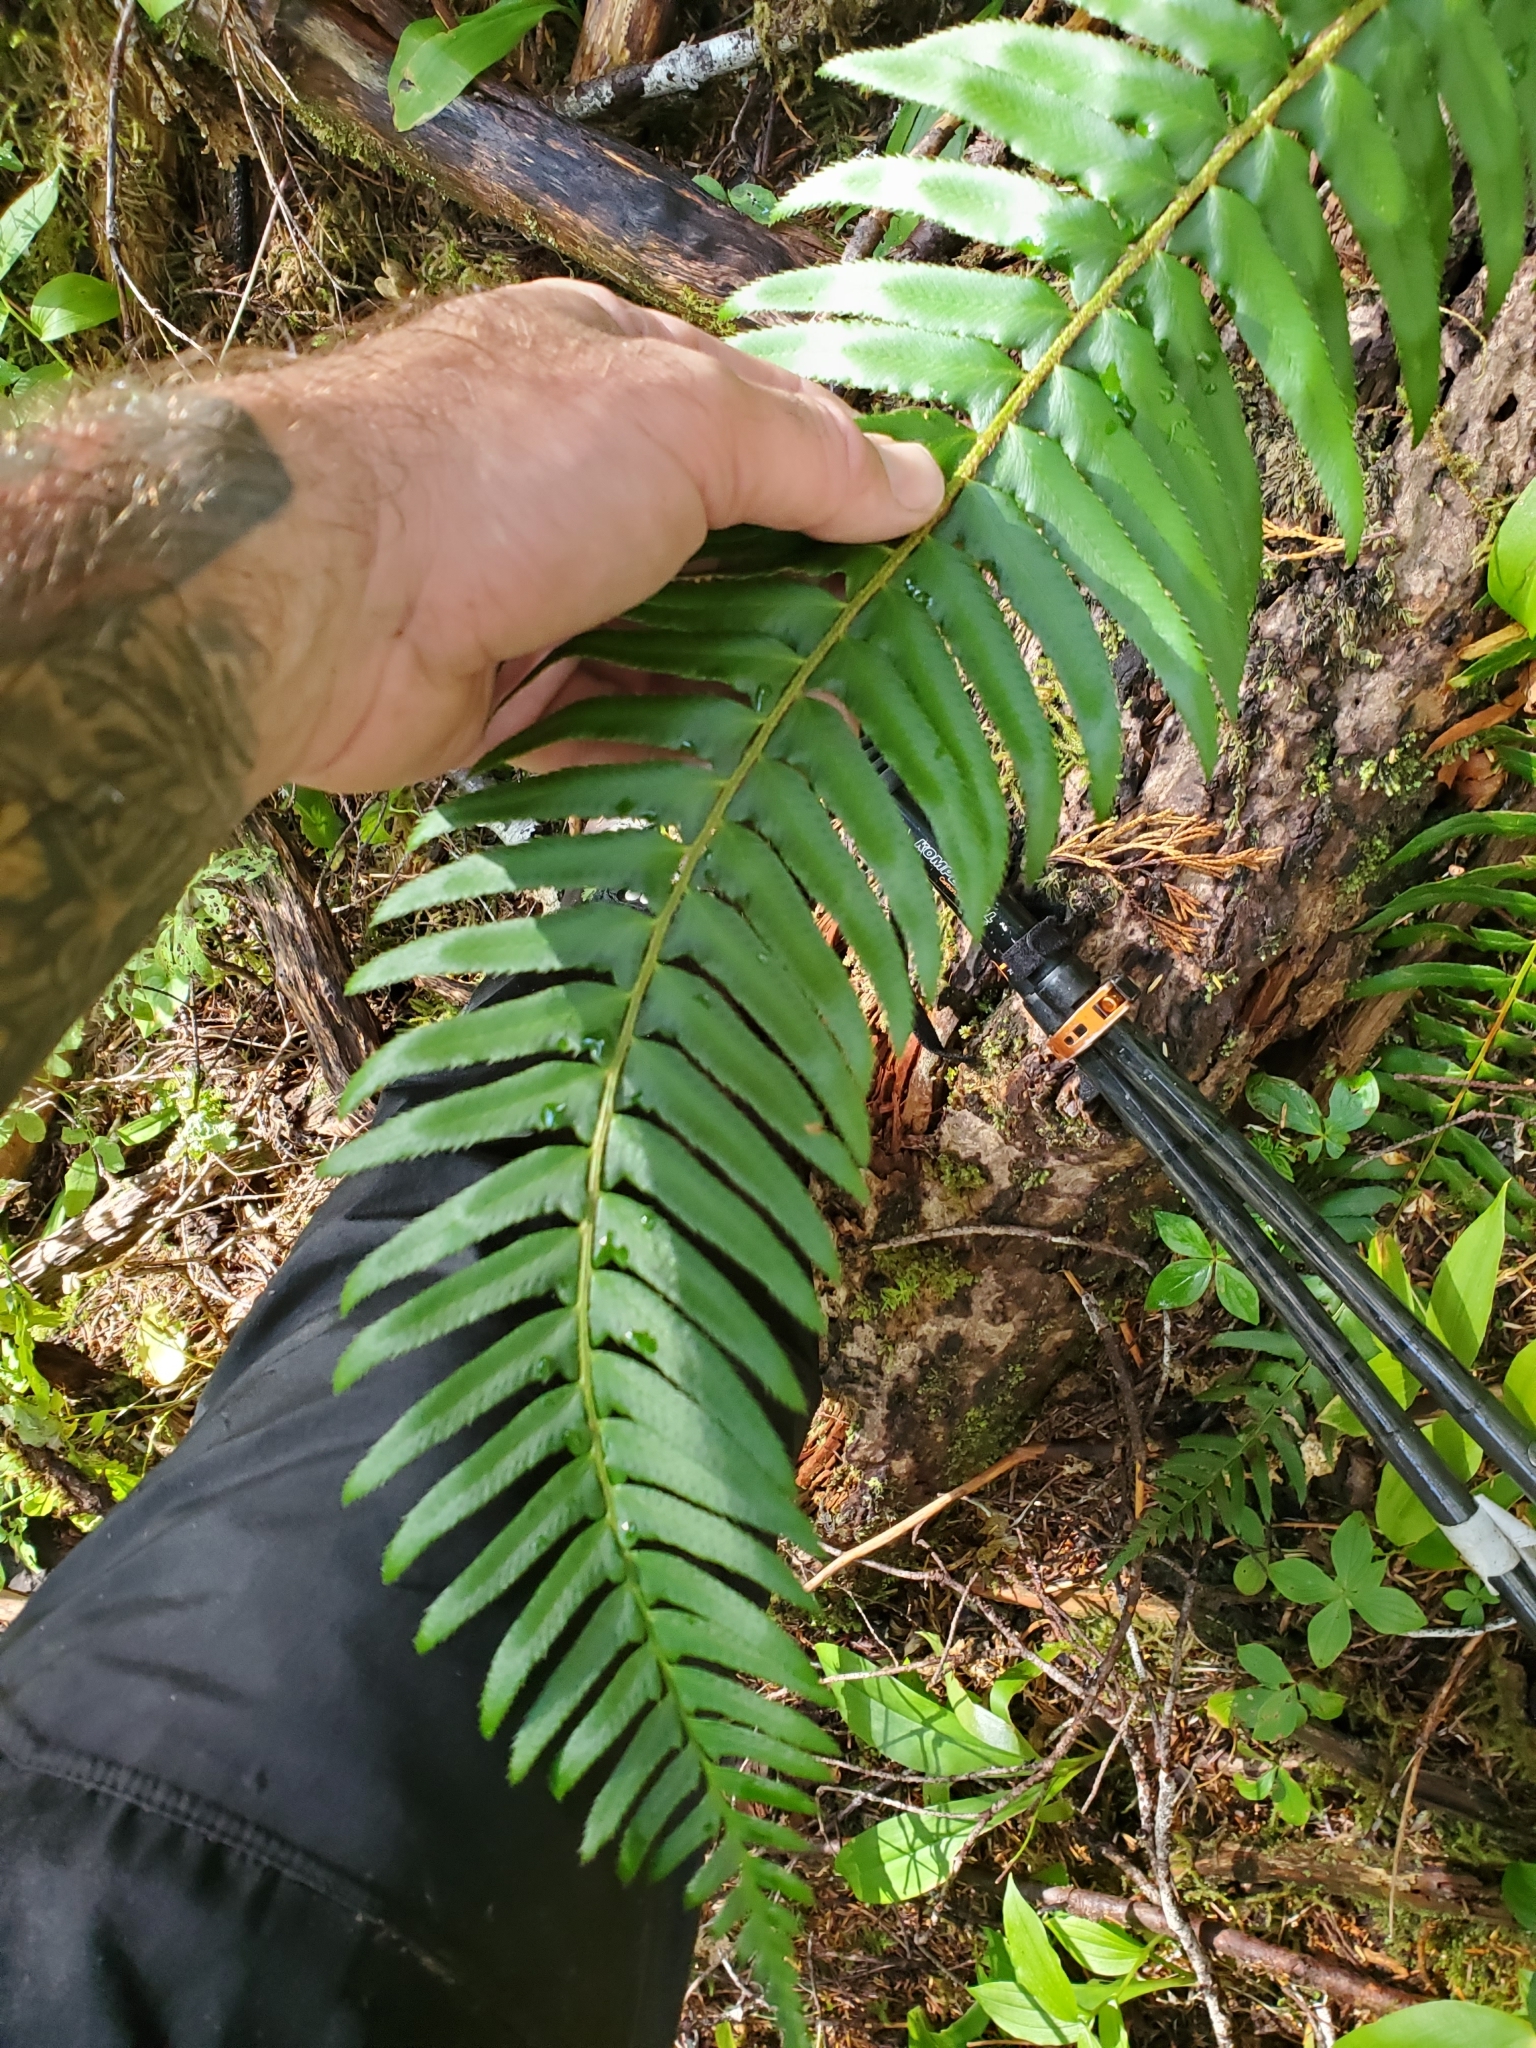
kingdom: Plantae
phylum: Tracheophyta
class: Polypodiopsida
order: Polypodiales
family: Dryopteridaceae
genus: Polystichum
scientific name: Polystichum munitum
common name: Western sword-fern
